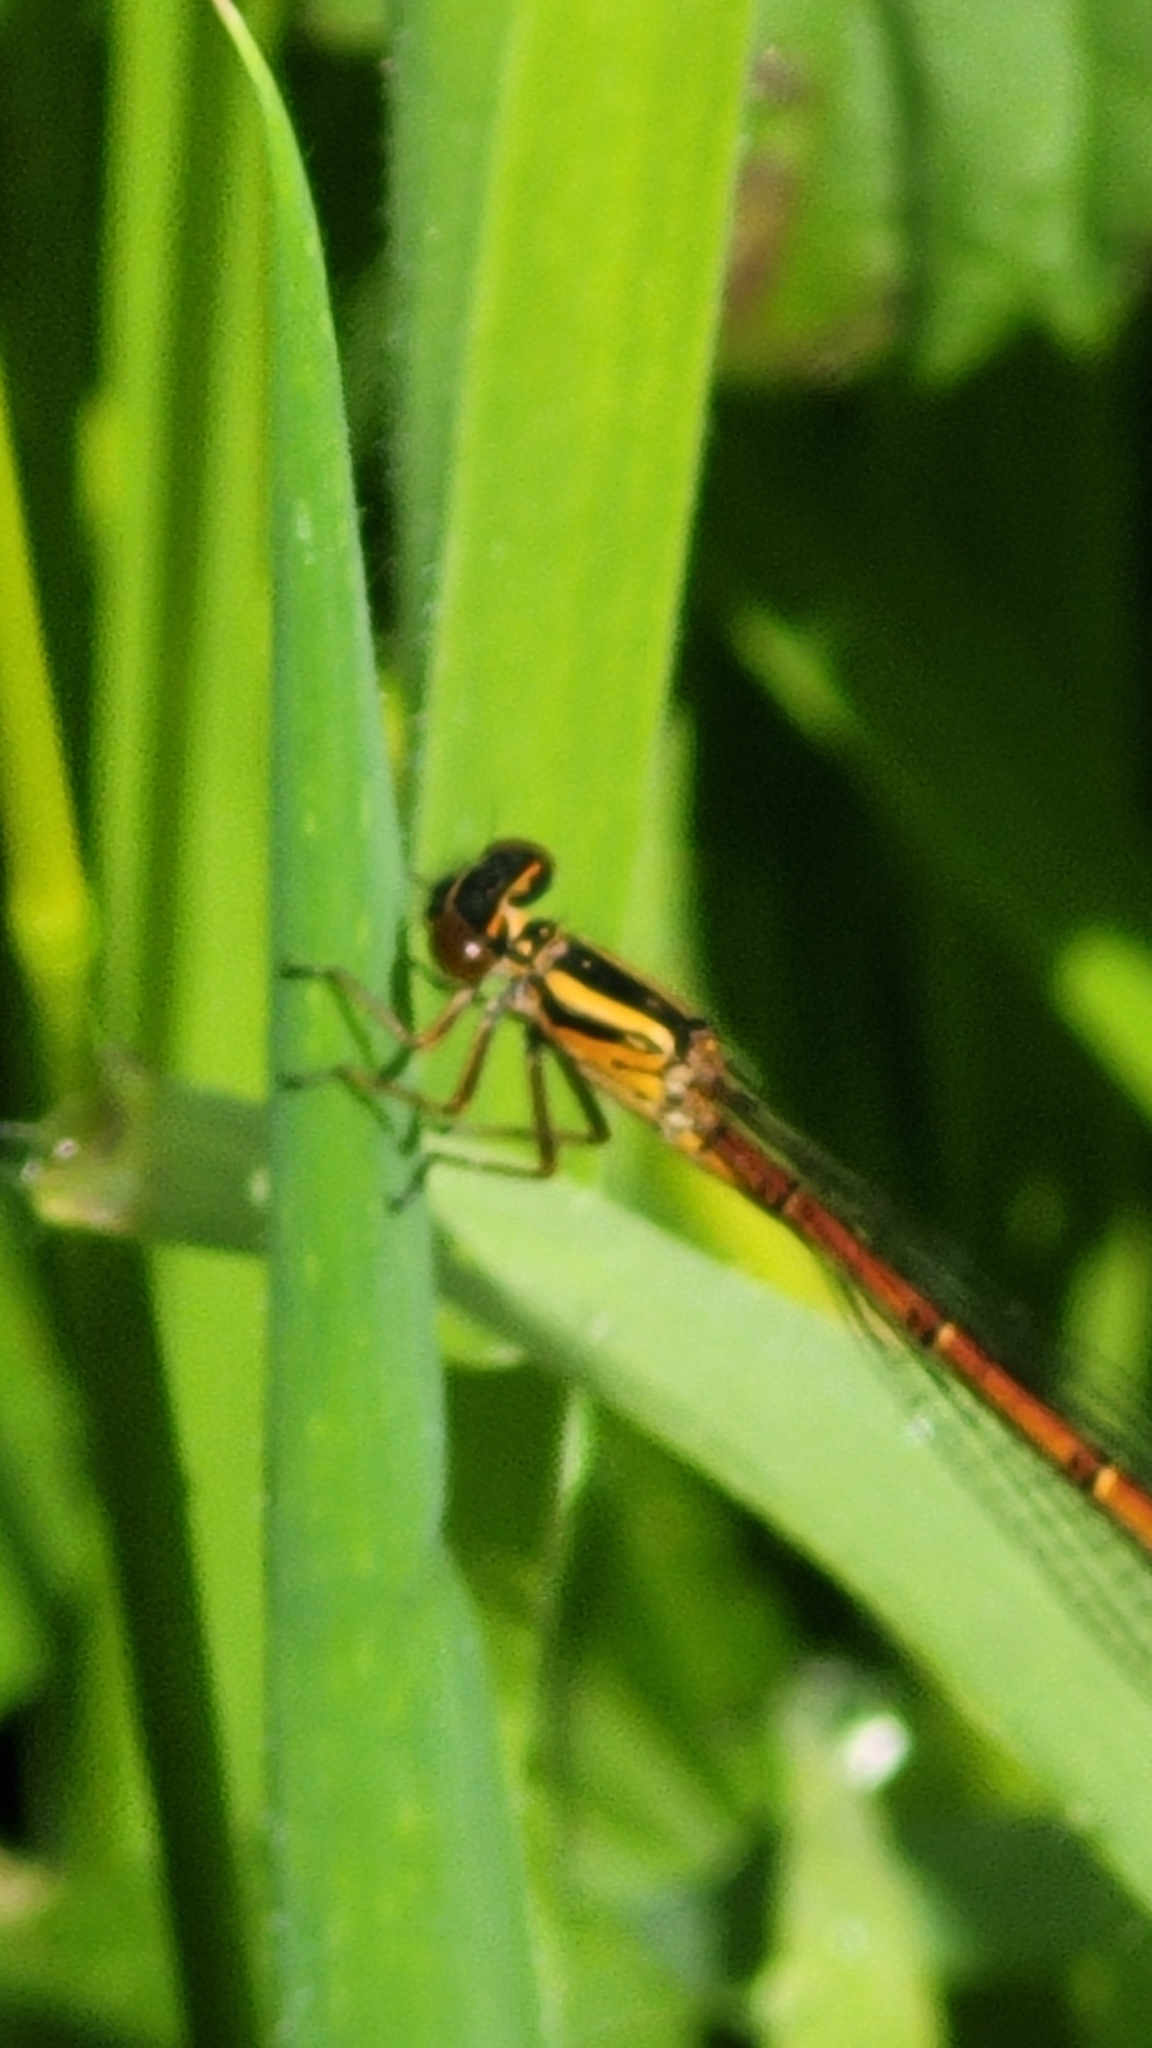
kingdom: Animalia
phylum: Arthropoda
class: Insecta
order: Odonata
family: Coenagrionidae
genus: Xanthocnemis
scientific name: Xanthocnemis zealandica
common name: Common redcoat damselfly
